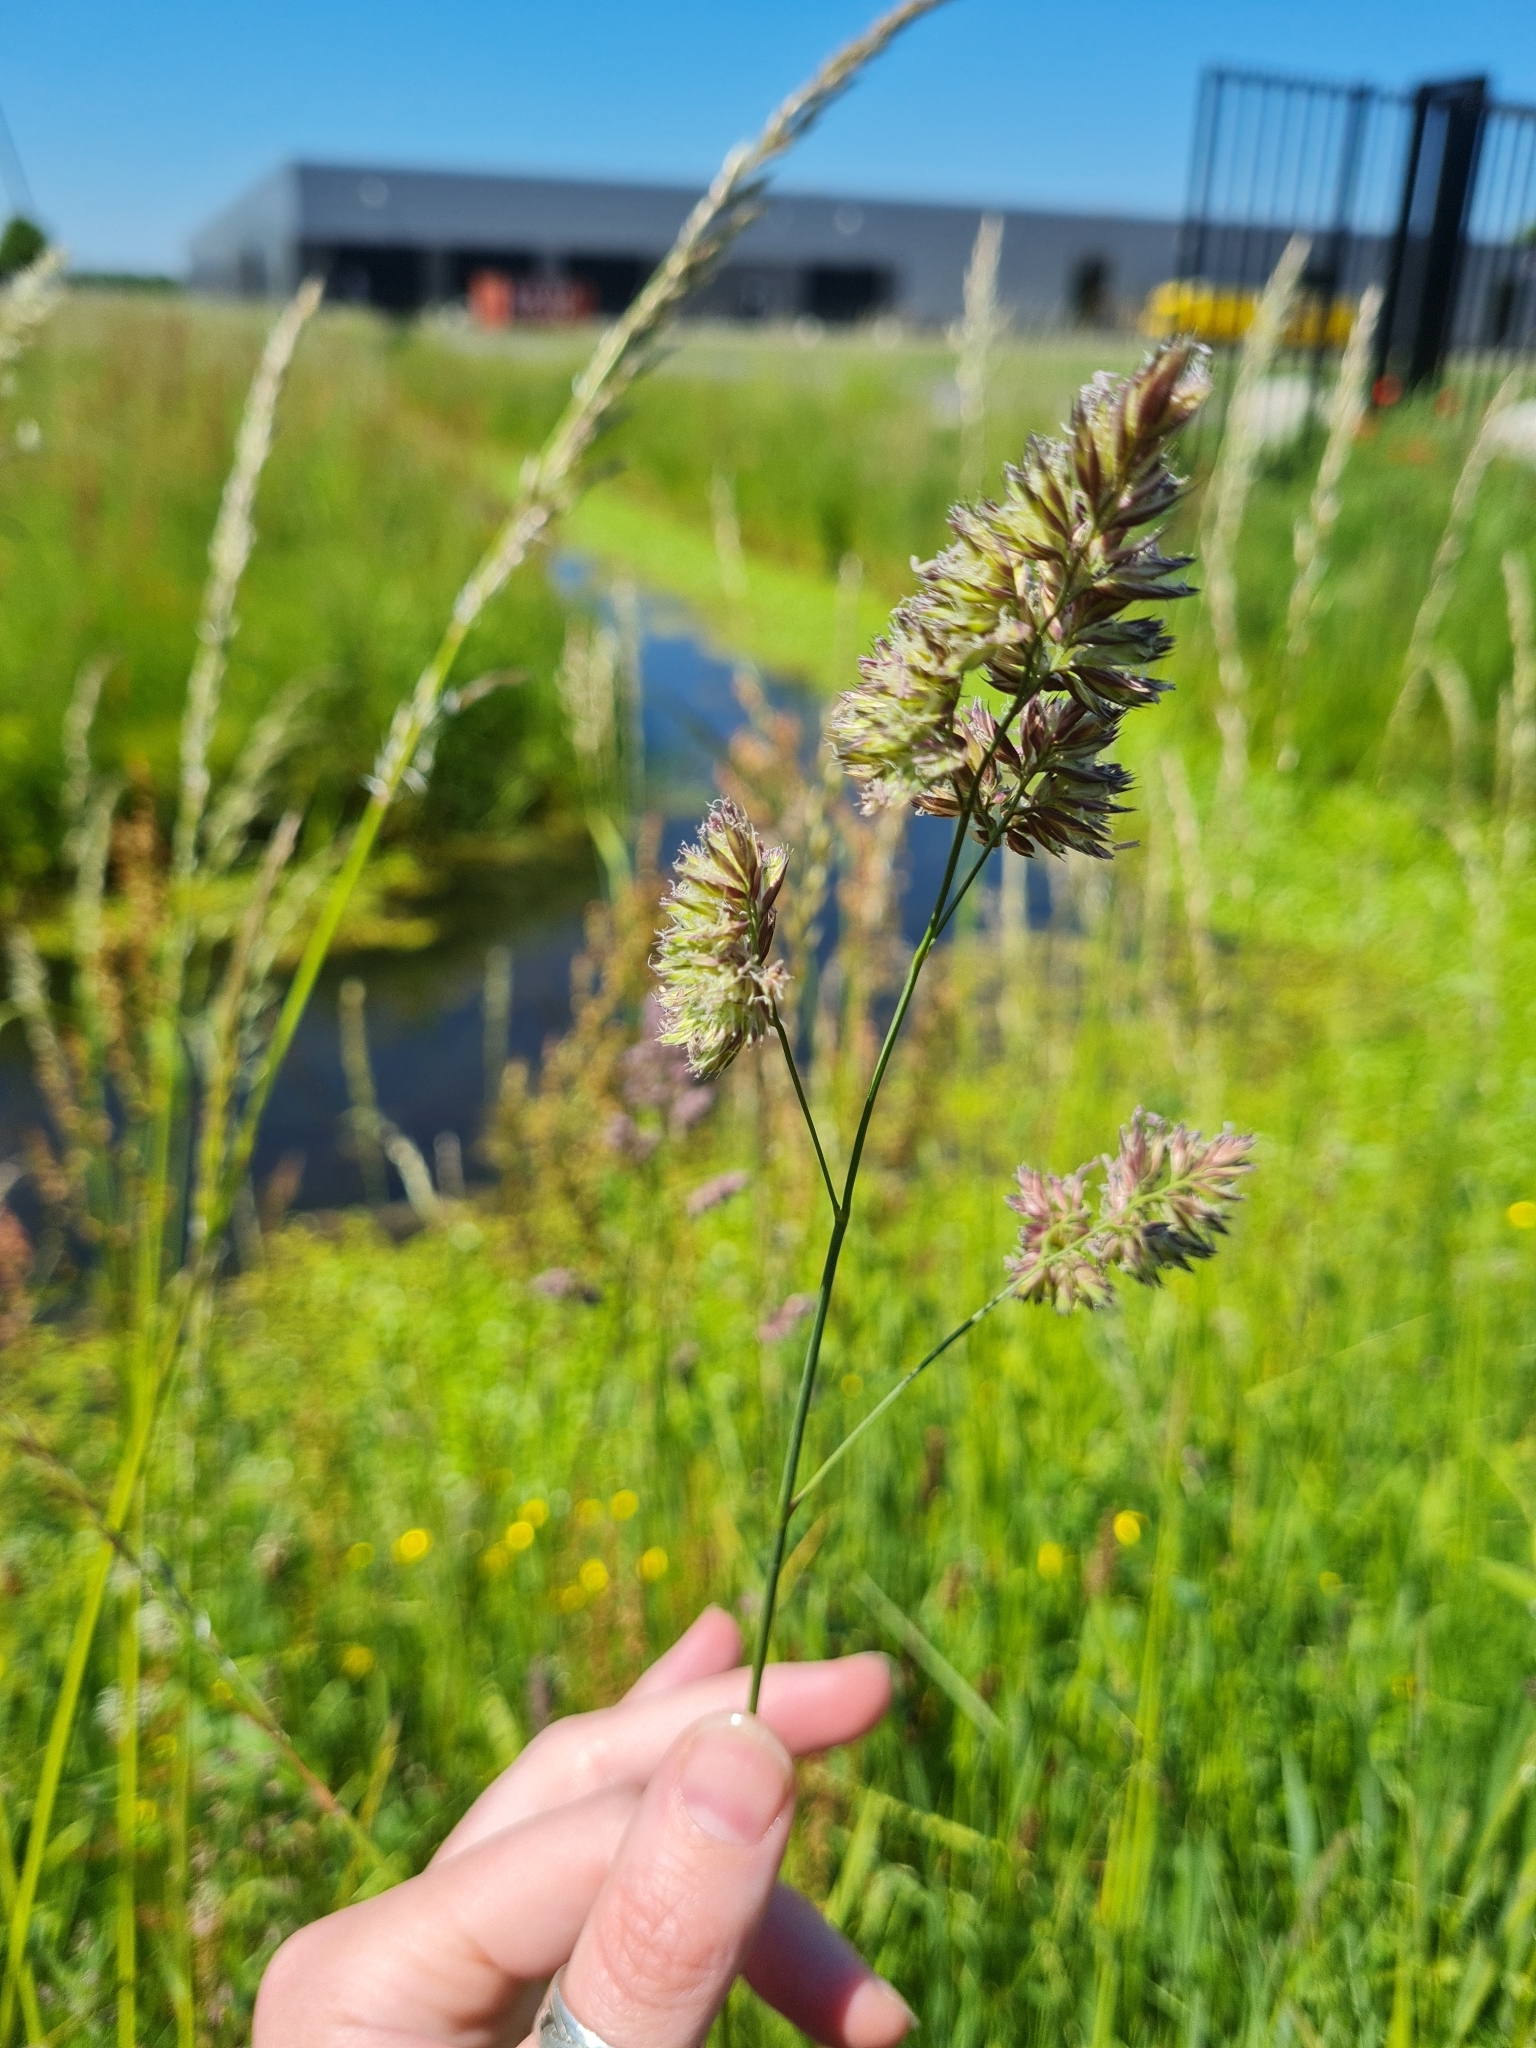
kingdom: Plantae
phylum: Tracheophyta
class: Liliopsida
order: Poales
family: Poaceae
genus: Dactylis
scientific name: Dactylis glomerata
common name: Orchardgrass
